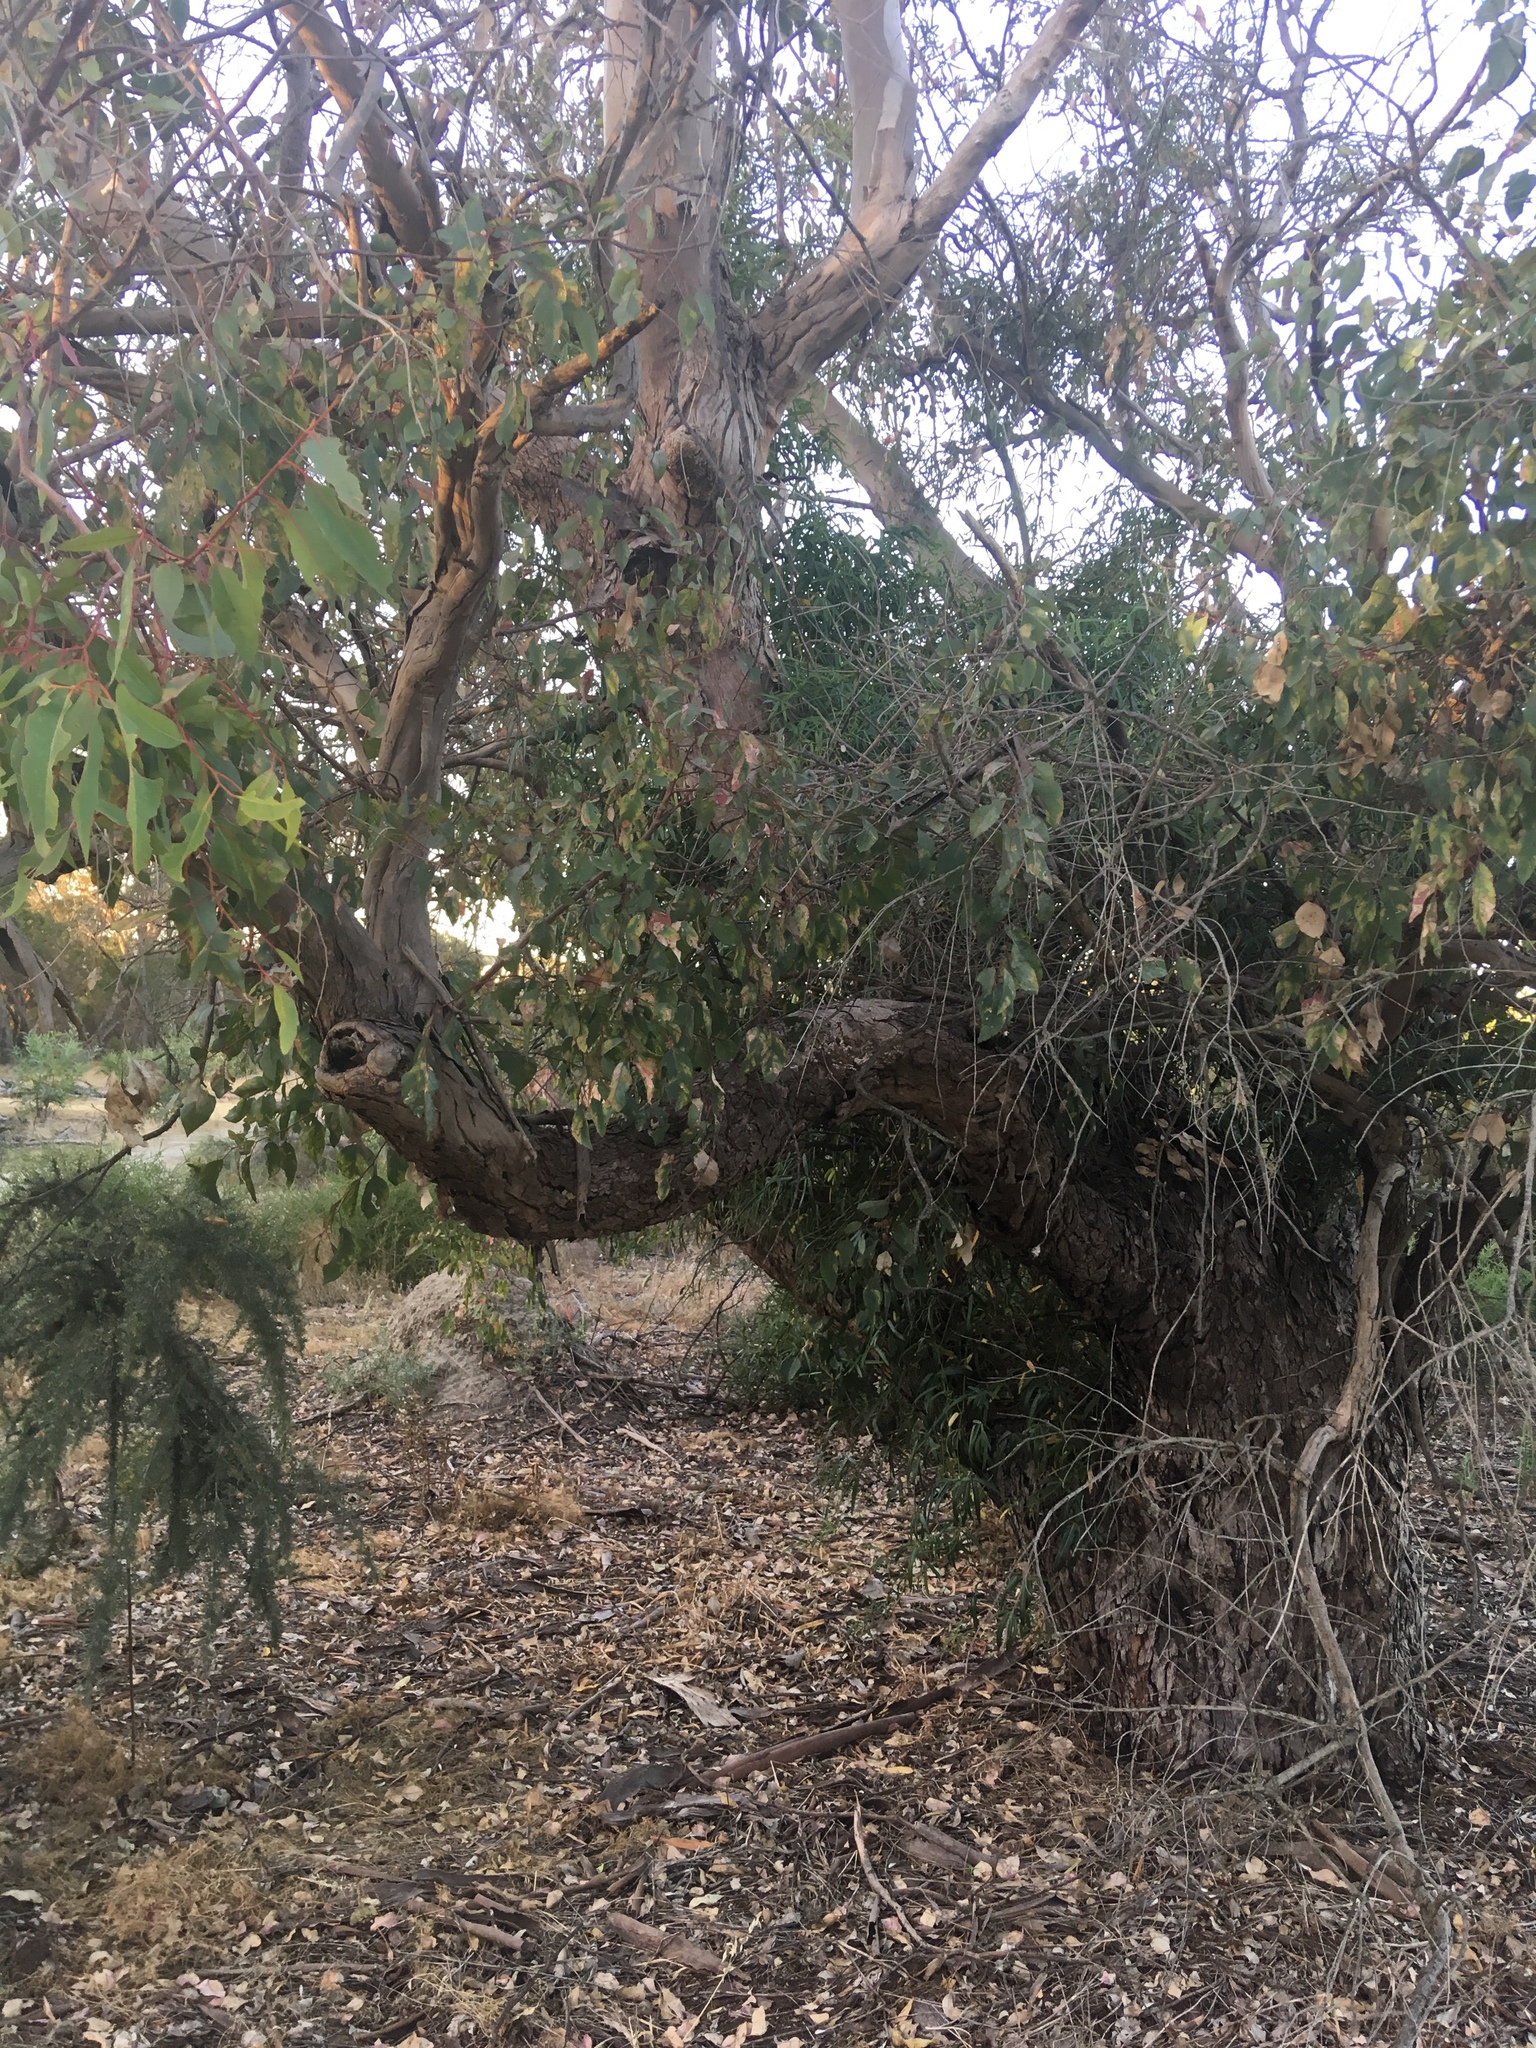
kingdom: Plantae
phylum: Tracheophyta
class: Magnoliopsida
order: Myrtales
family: Myrtaceae
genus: Eucalyptus
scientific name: Eucalyptus rudis
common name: Flooded gum
